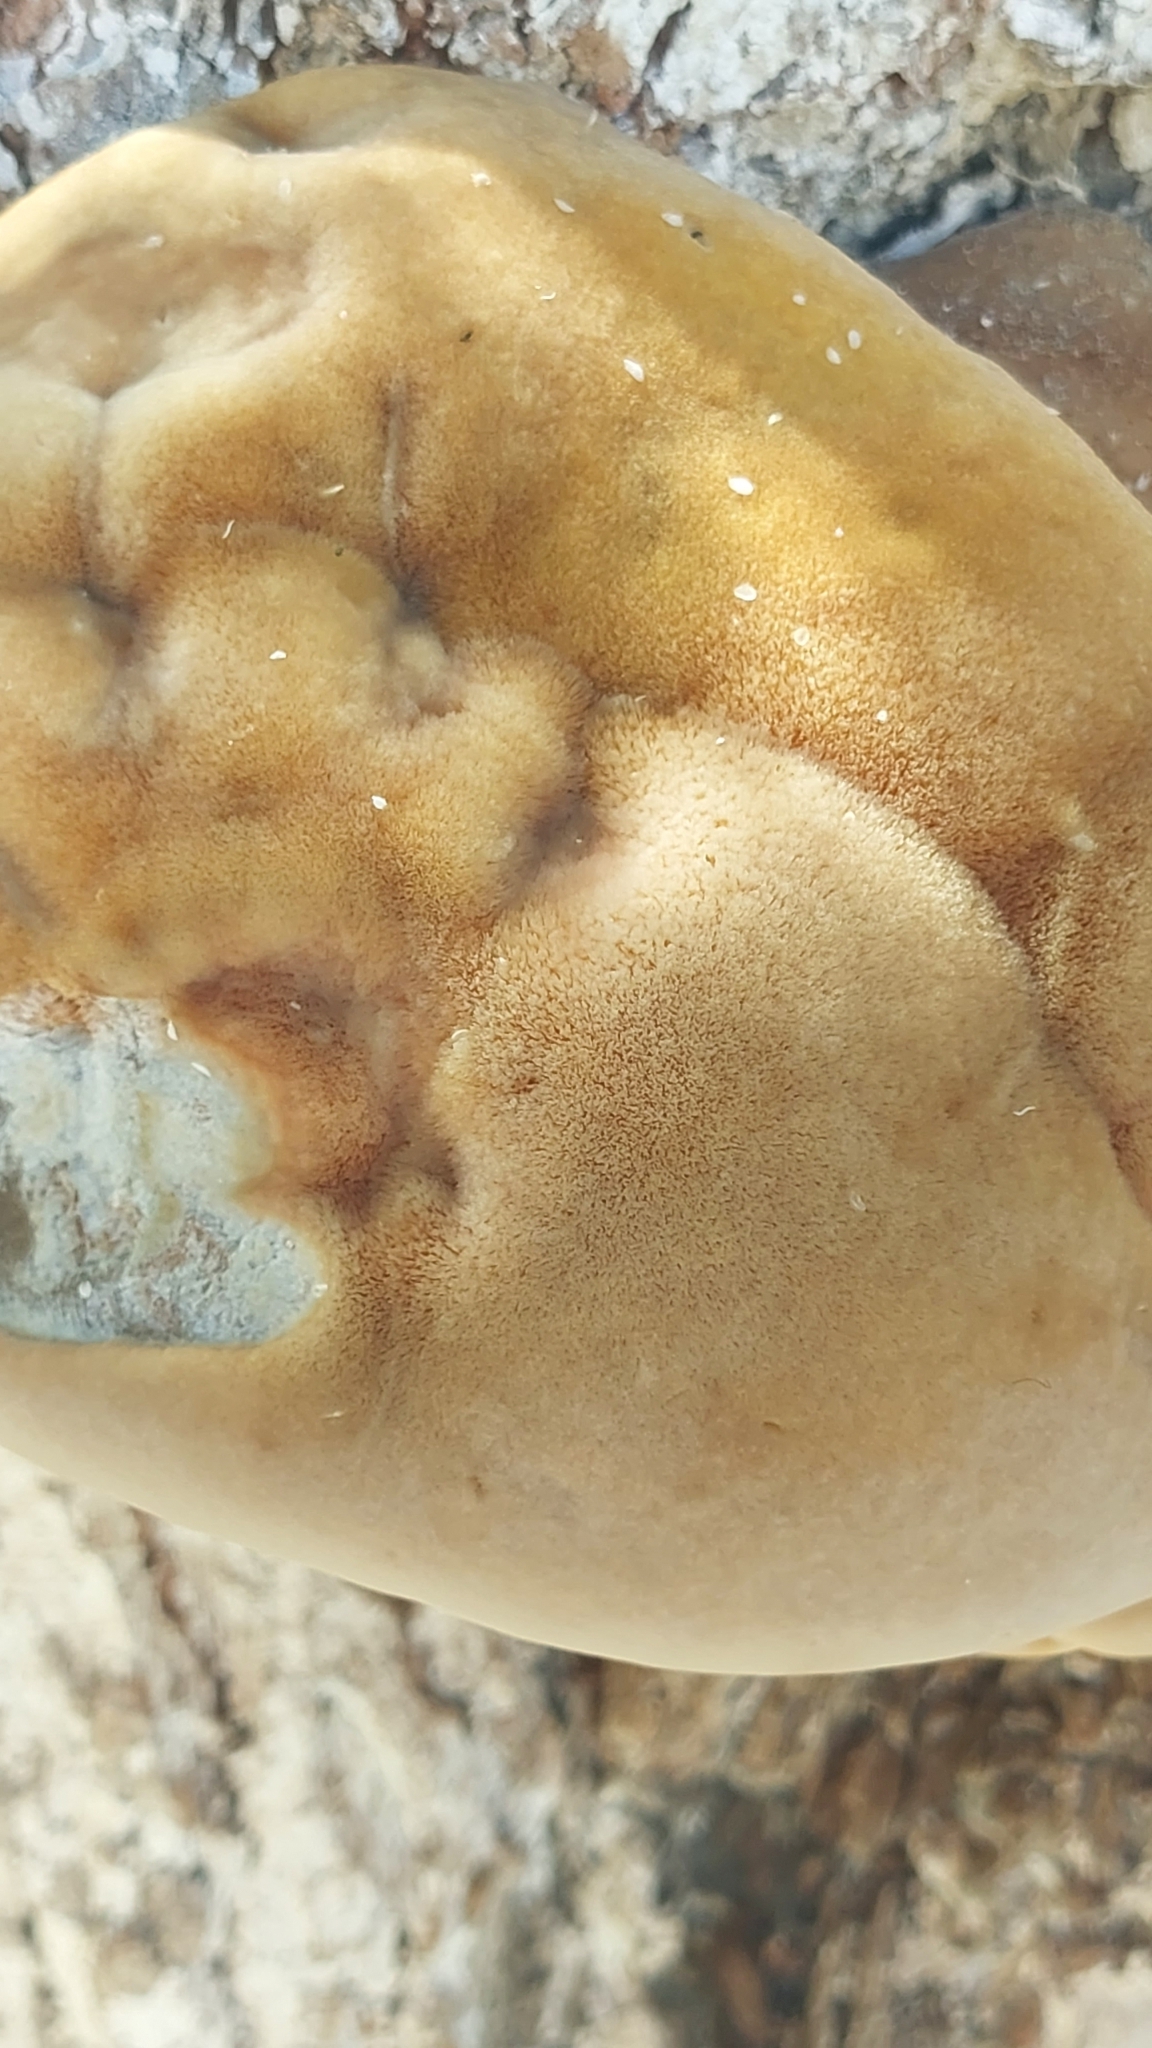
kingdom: Fungi
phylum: Basidiomycota
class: Agaricomycetes
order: Hymenochaetales
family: Hymenochaetaceae
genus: Inocutis
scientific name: Inocutis tamaricis
